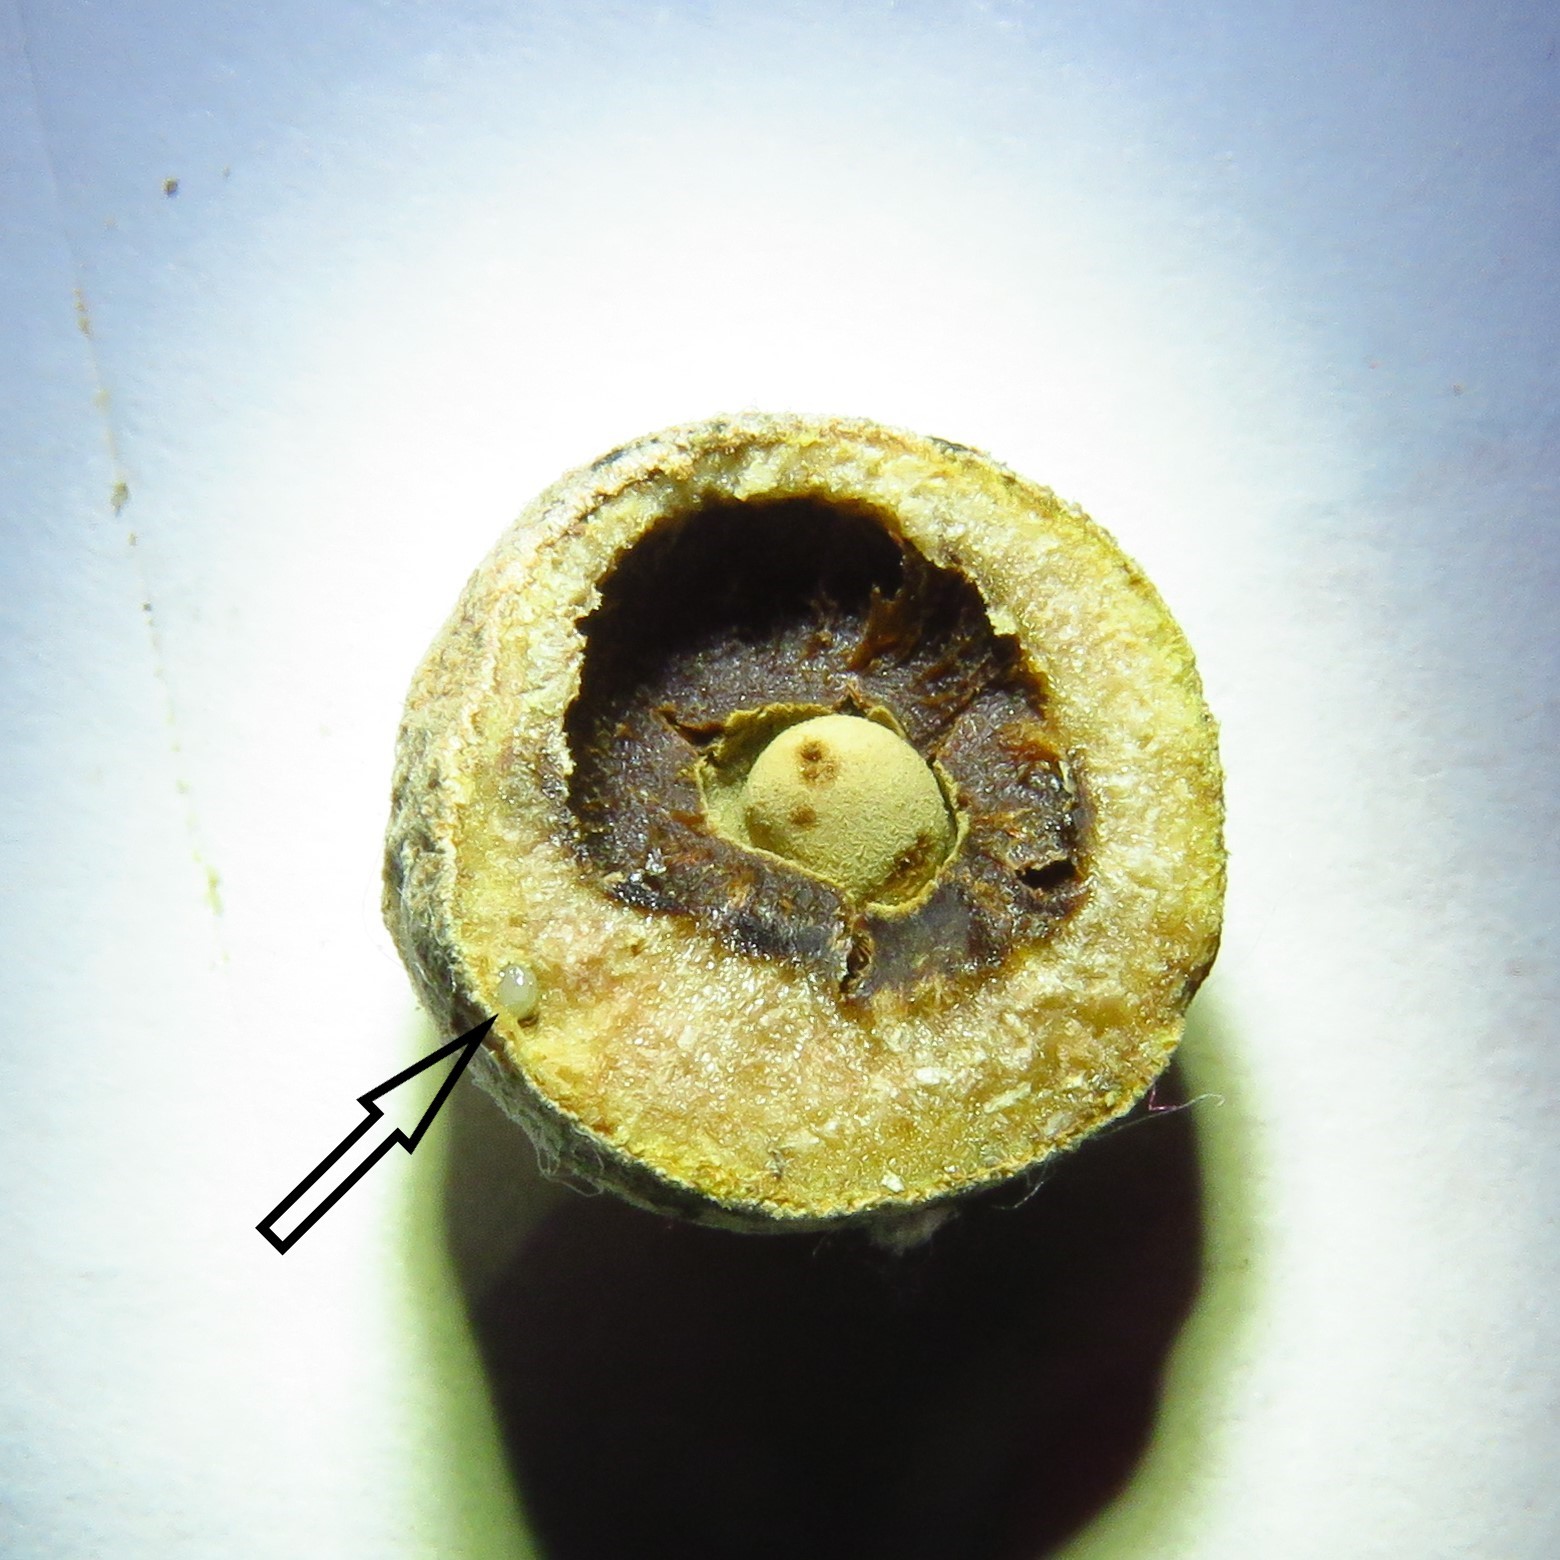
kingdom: Animalia
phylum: Arthropoda
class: Insecta
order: Hymenoptera
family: Cynipidae
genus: Disholcaspis
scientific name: Disholcaspis
